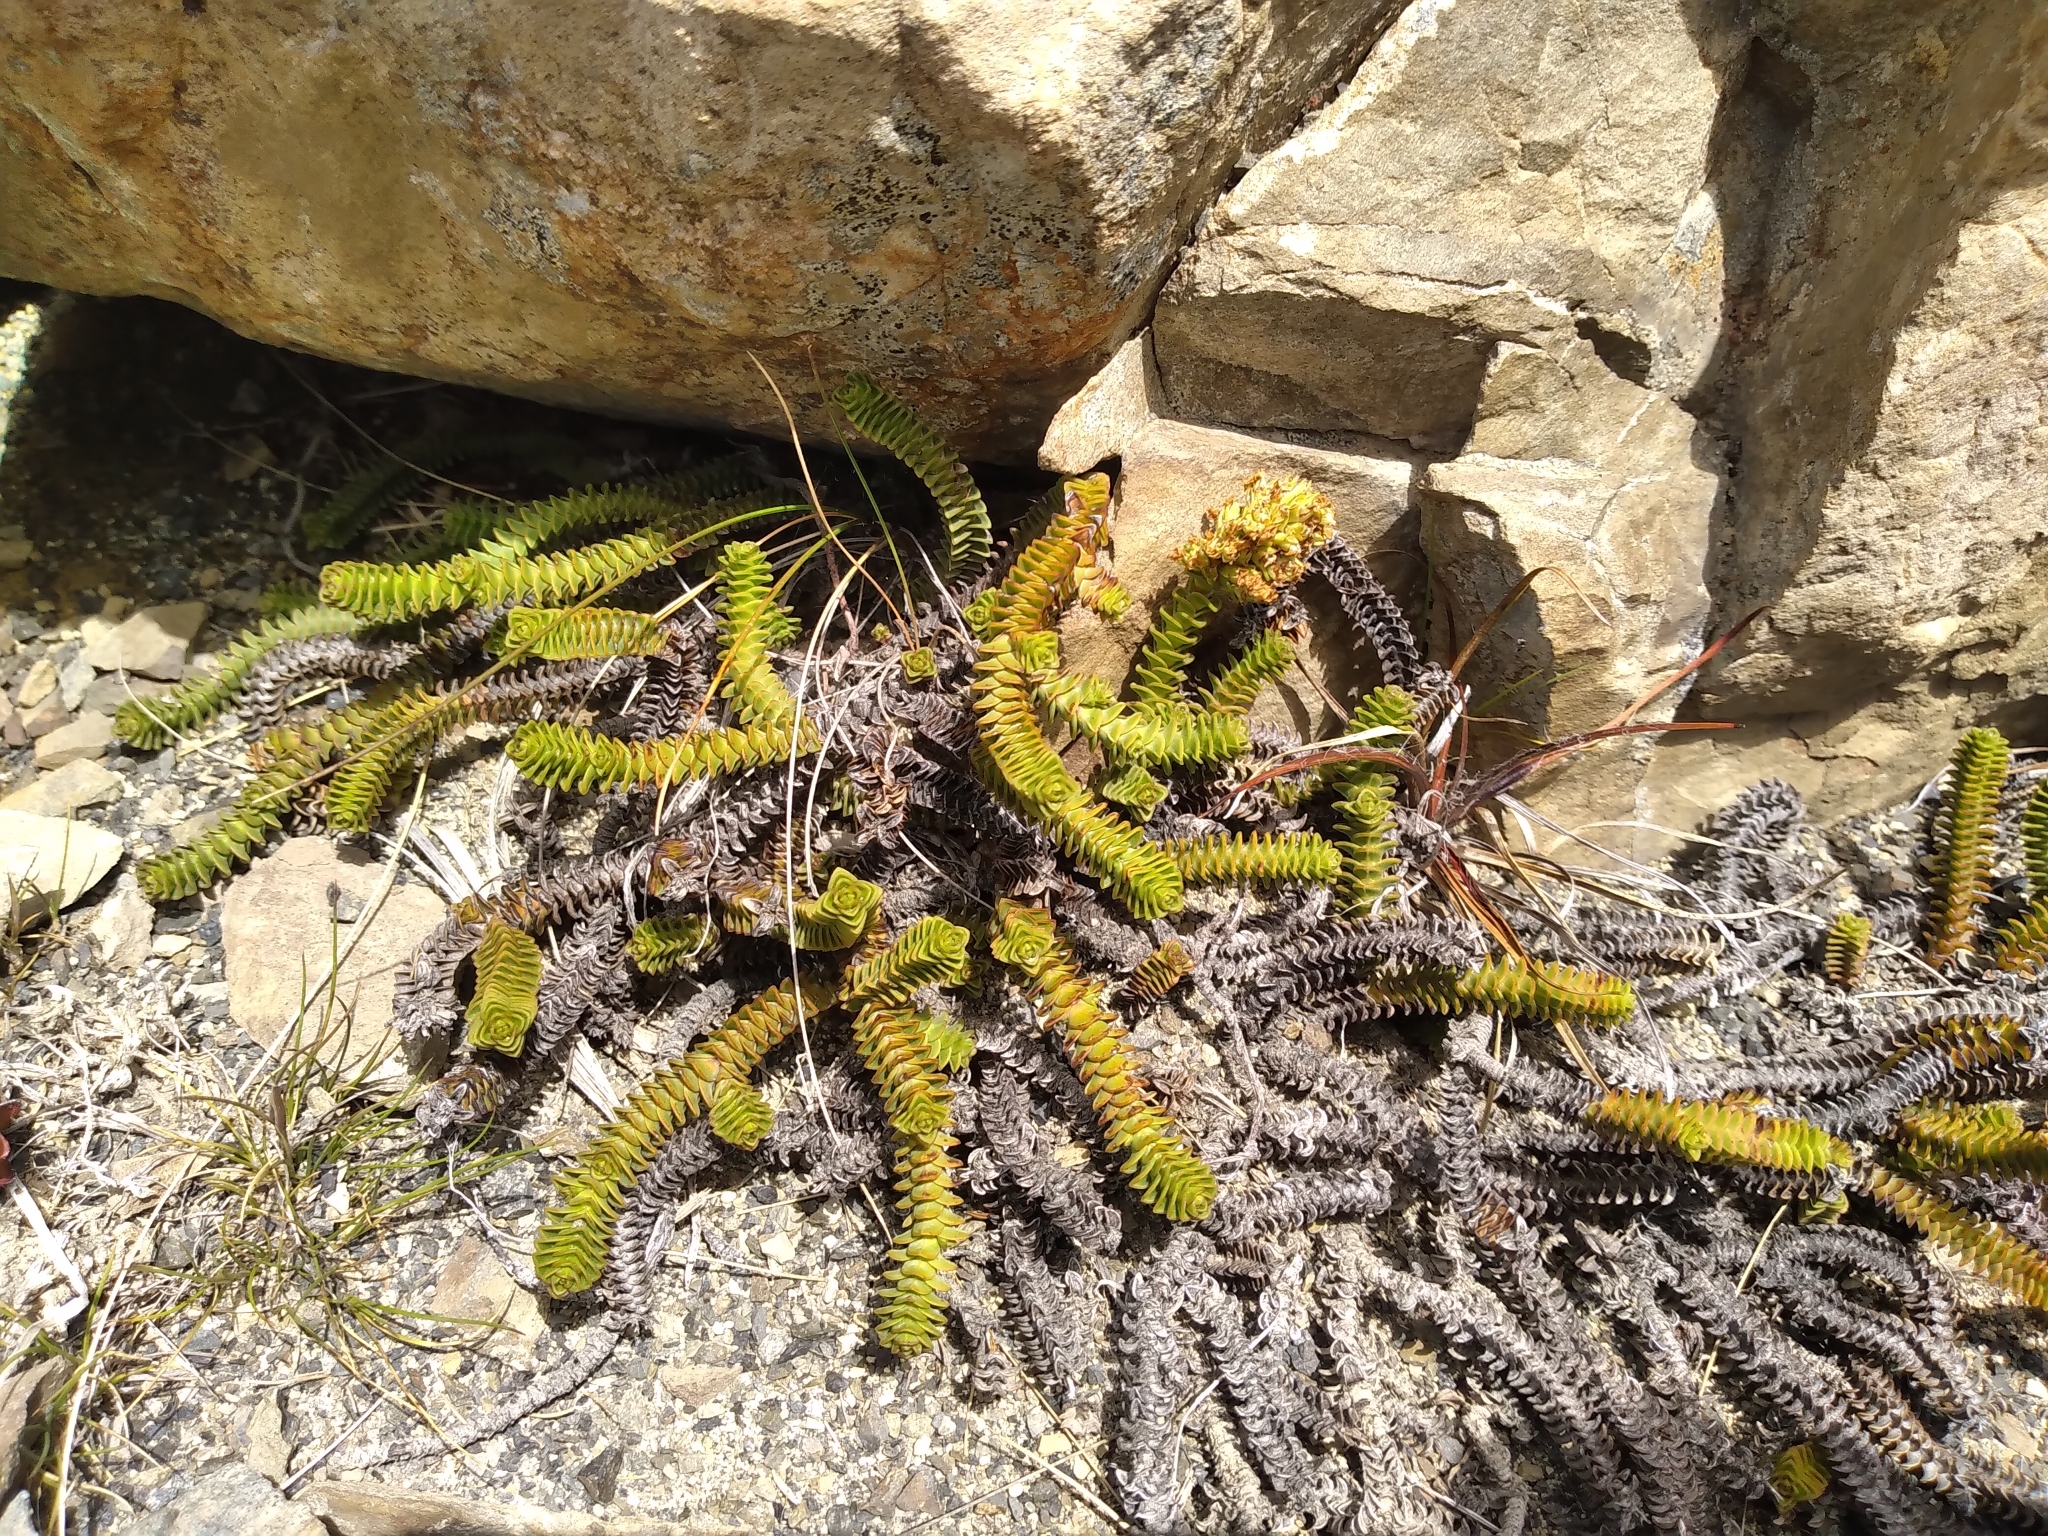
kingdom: Plantae
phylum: Tracheophyta
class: Magnoliopsida
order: Lamiales
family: Plantaginaceae
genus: Veronica
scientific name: Veronica epacridea
